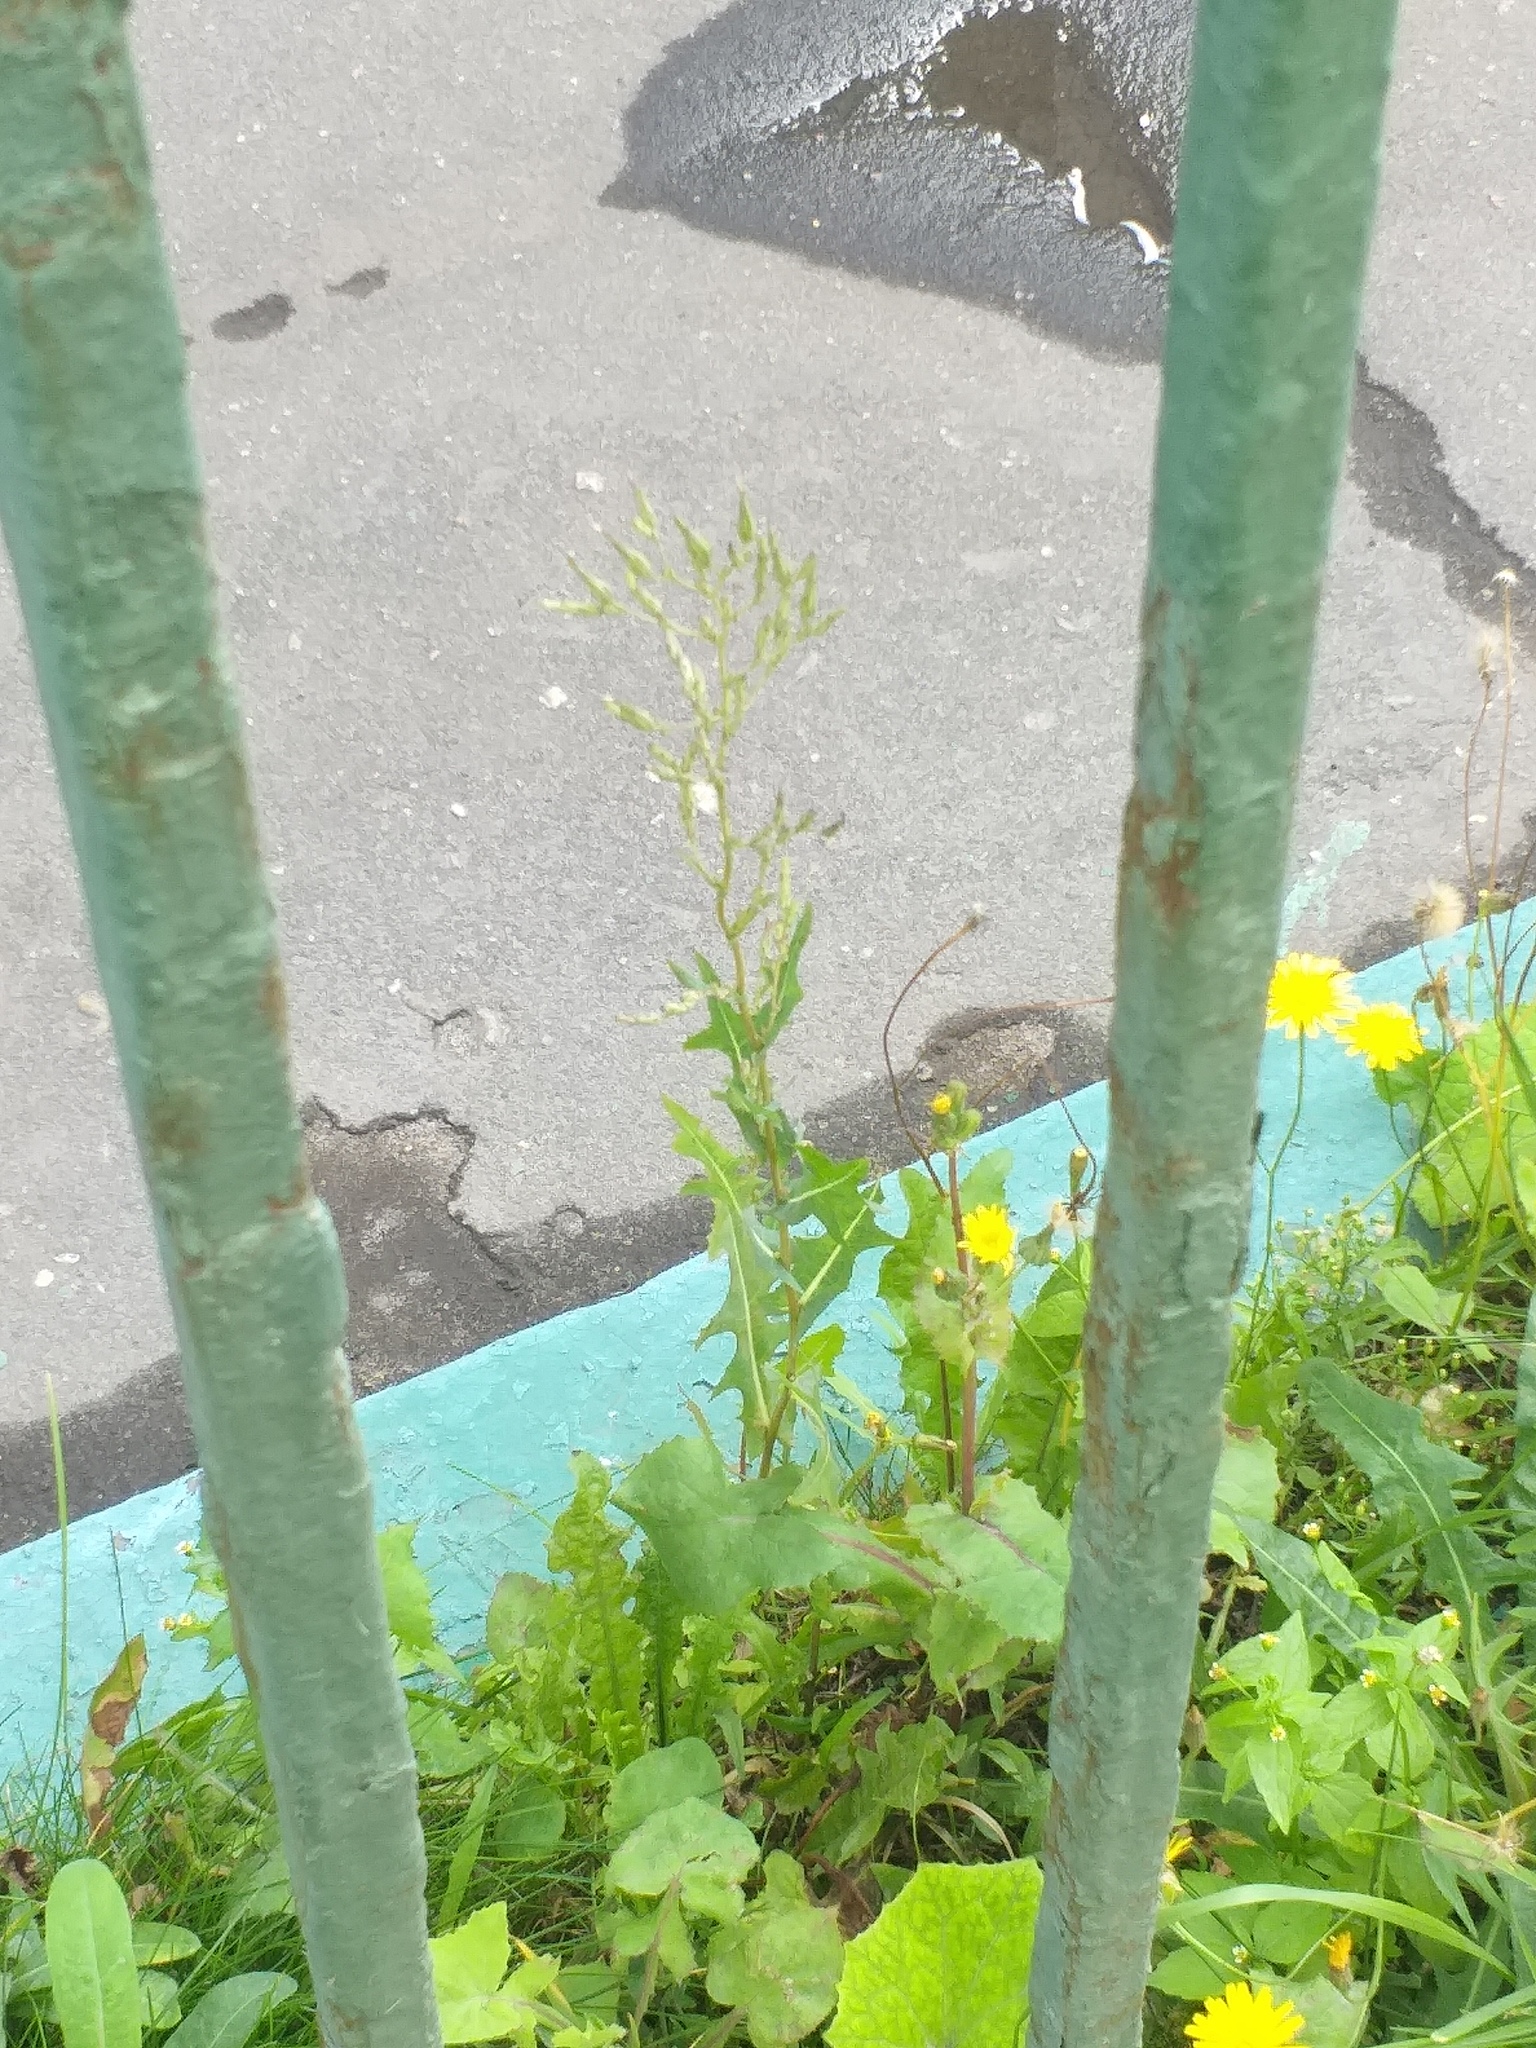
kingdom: Plantae
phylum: Tracheophyta
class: Magnoliopsida
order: Asterales
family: Asteraceae
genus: Lactuca
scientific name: Lactuca serriola
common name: Prickly lettuce
